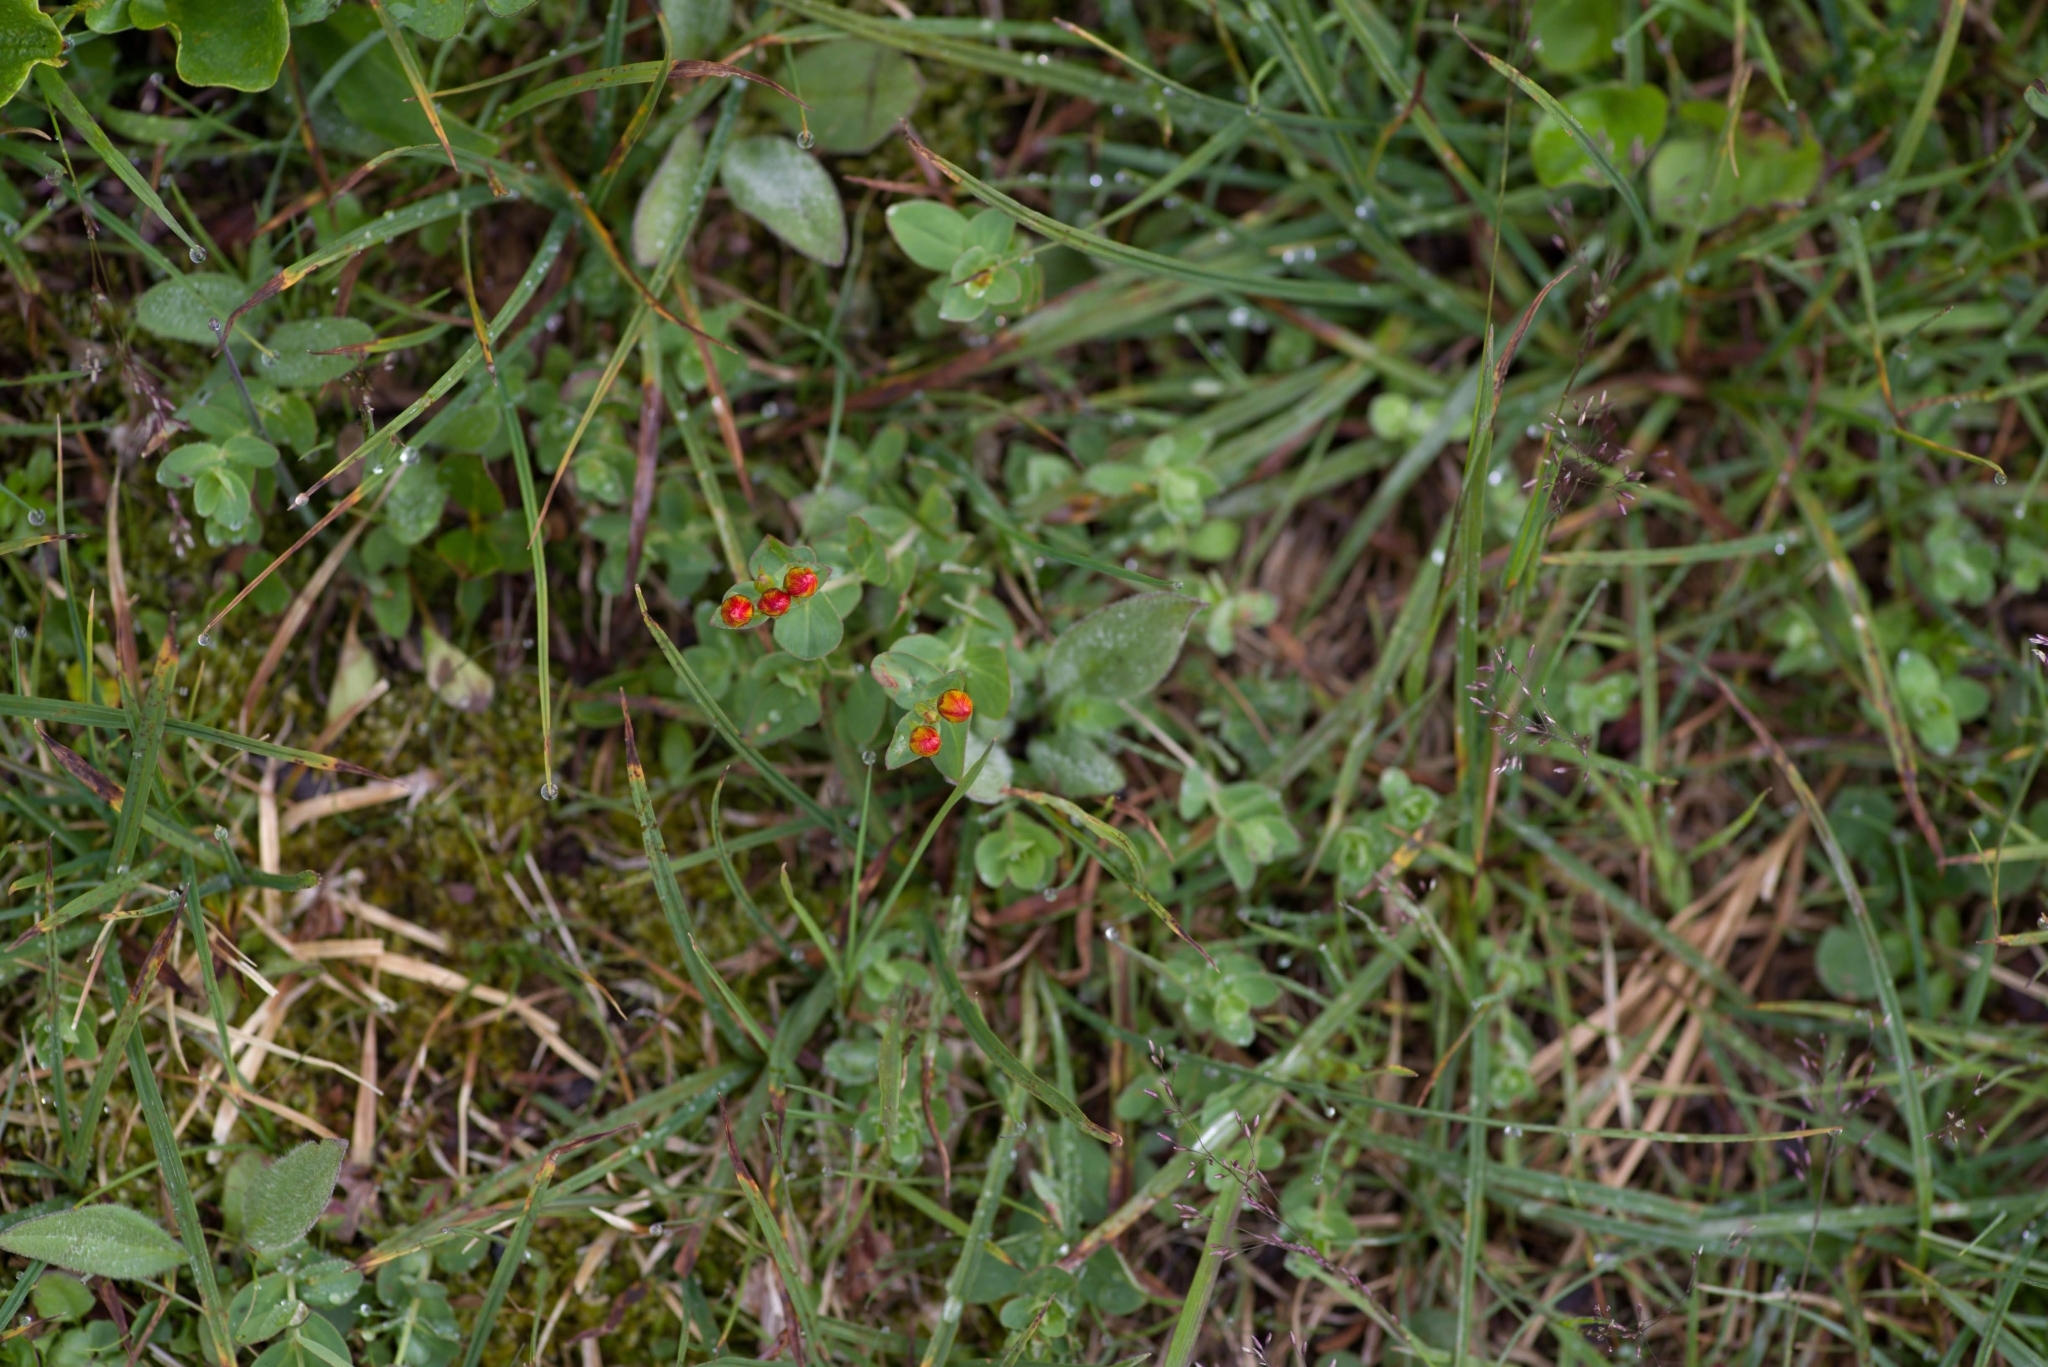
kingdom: Plantae
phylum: Tracheophyta
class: Magnoliopsida
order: Malpighiales
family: Hypericaceae
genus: Hypericum
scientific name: Hypericum scouleri
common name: Scouler's st. john's-wort
